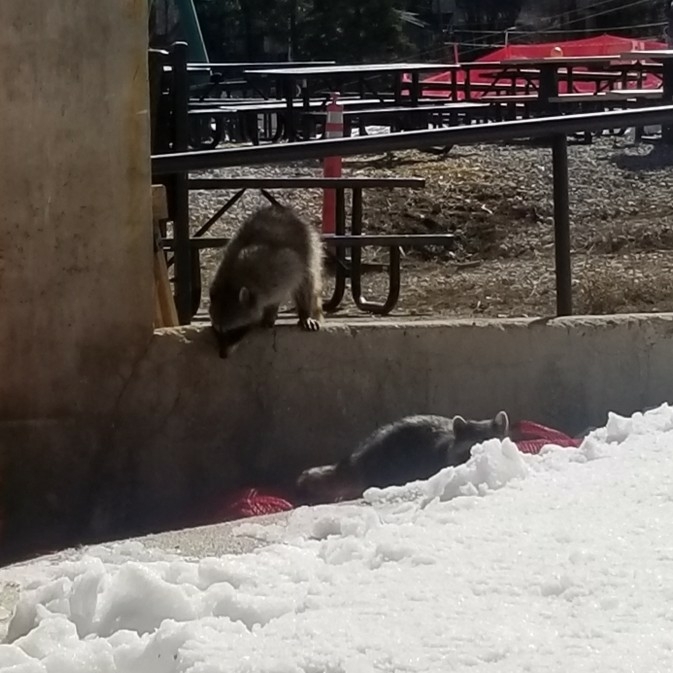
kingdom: Animalia
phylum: Chordata
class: Mammalia
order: Carnivora
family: Procyonidae
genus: Procyon
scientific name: Procyon lotor
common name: Raccoon
